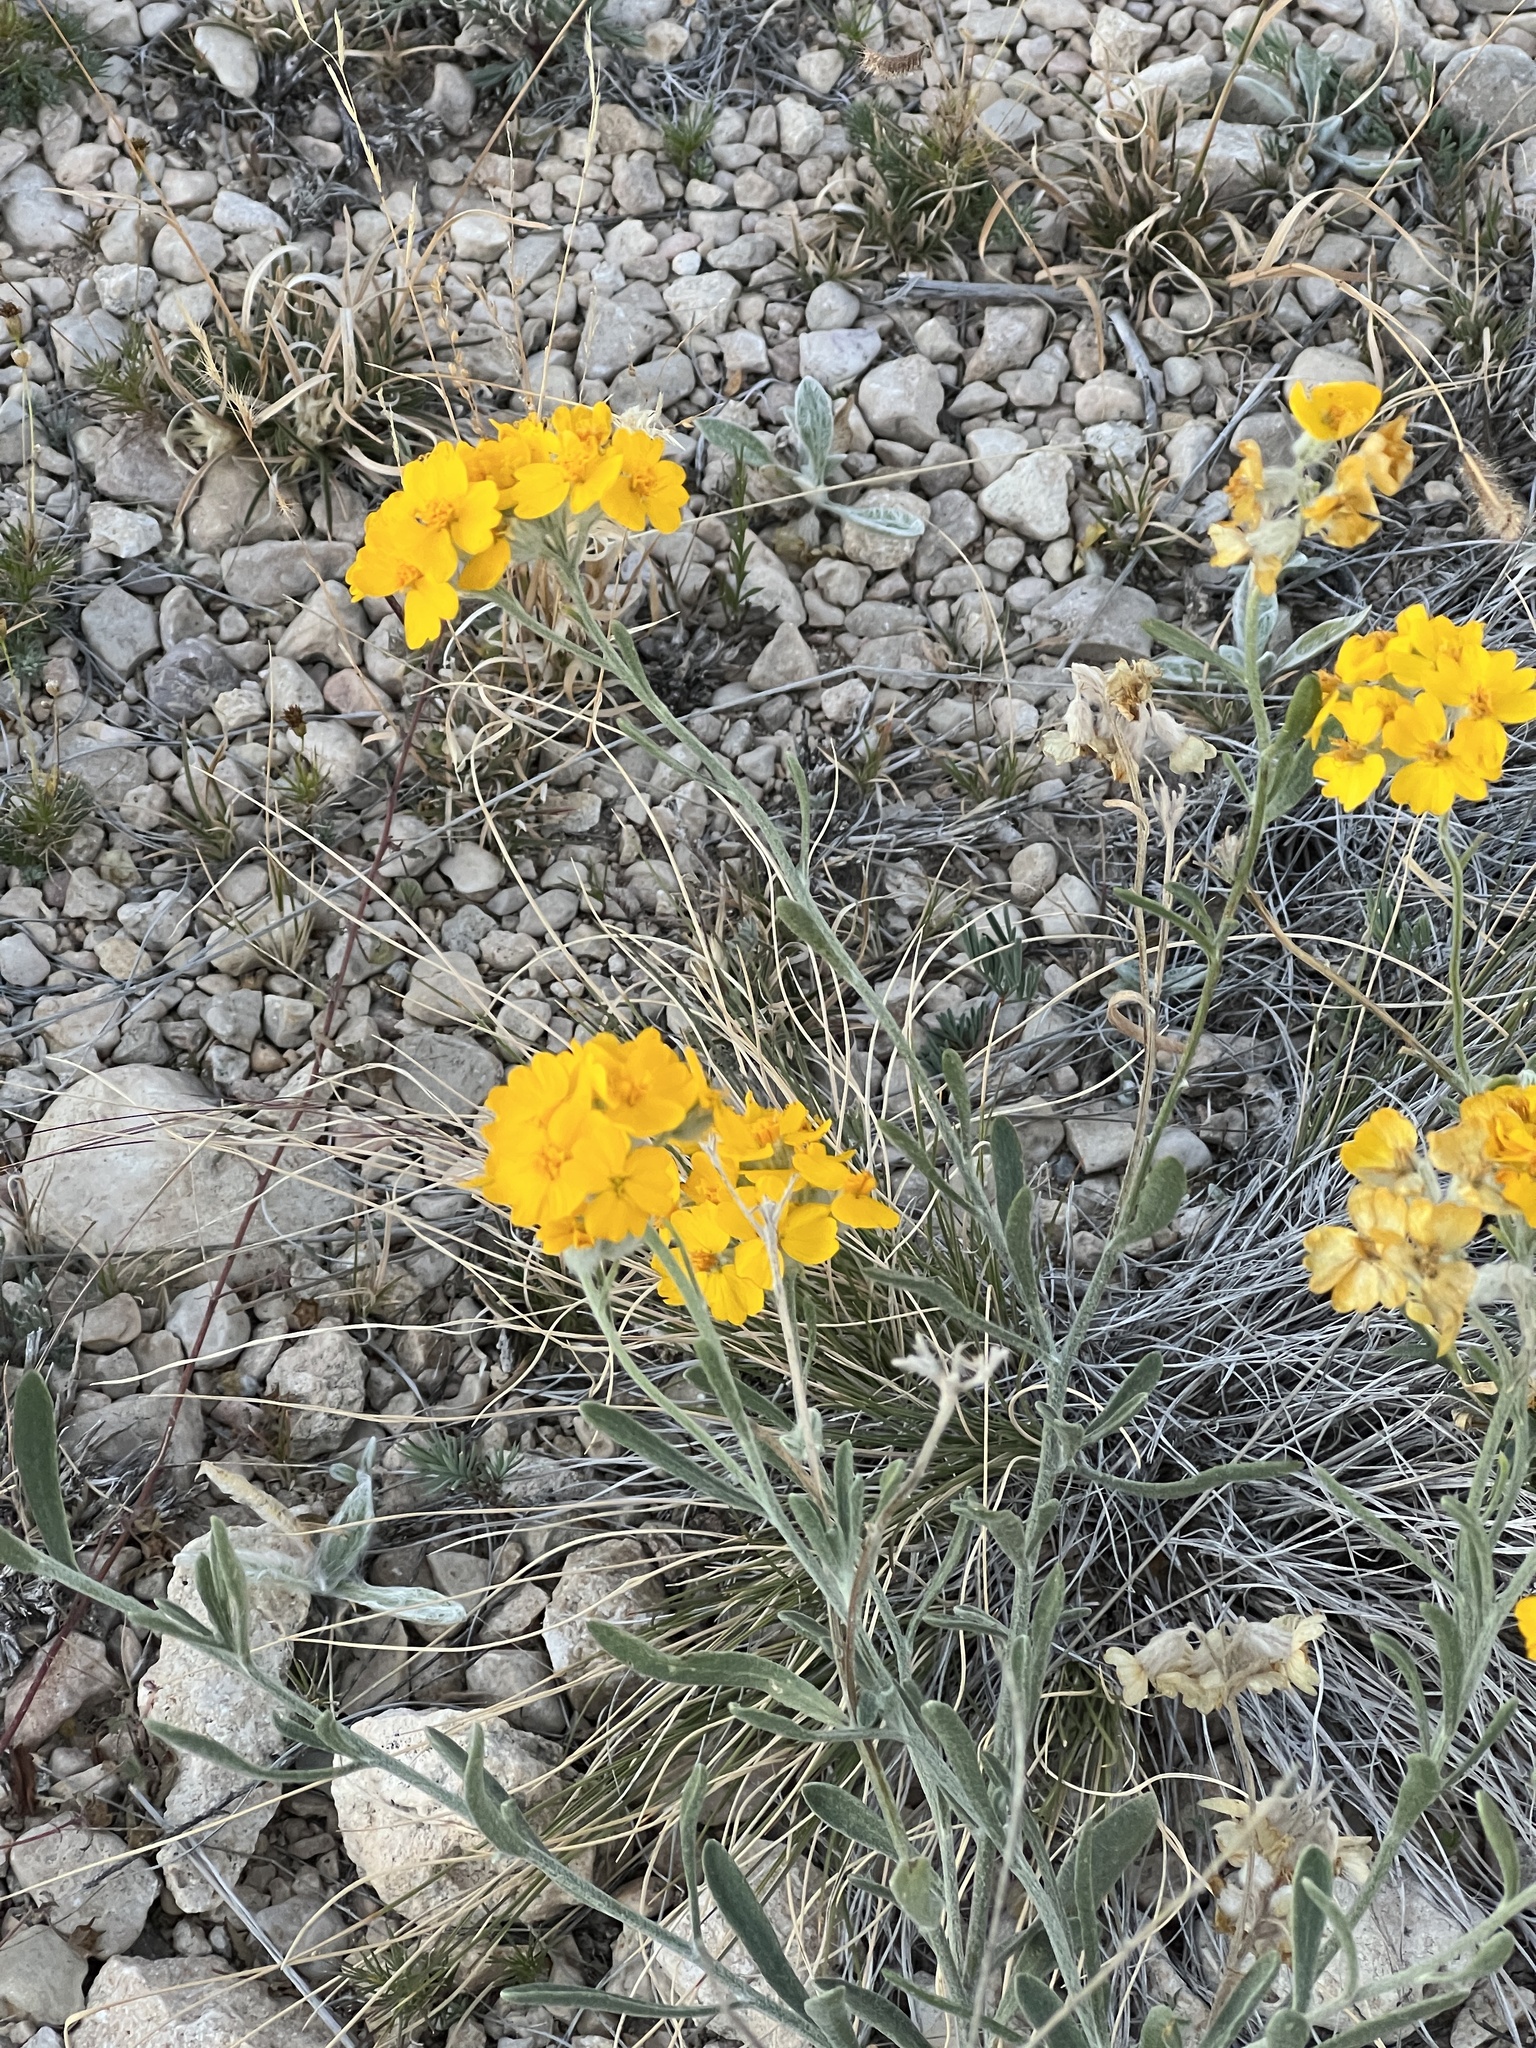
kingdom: Plantae
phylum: Tracheophyta
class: Magnoliopsida
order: Asterales
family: Asteraceae
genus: Psilostrophe
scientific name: Psilostrophe gnaphalioides
